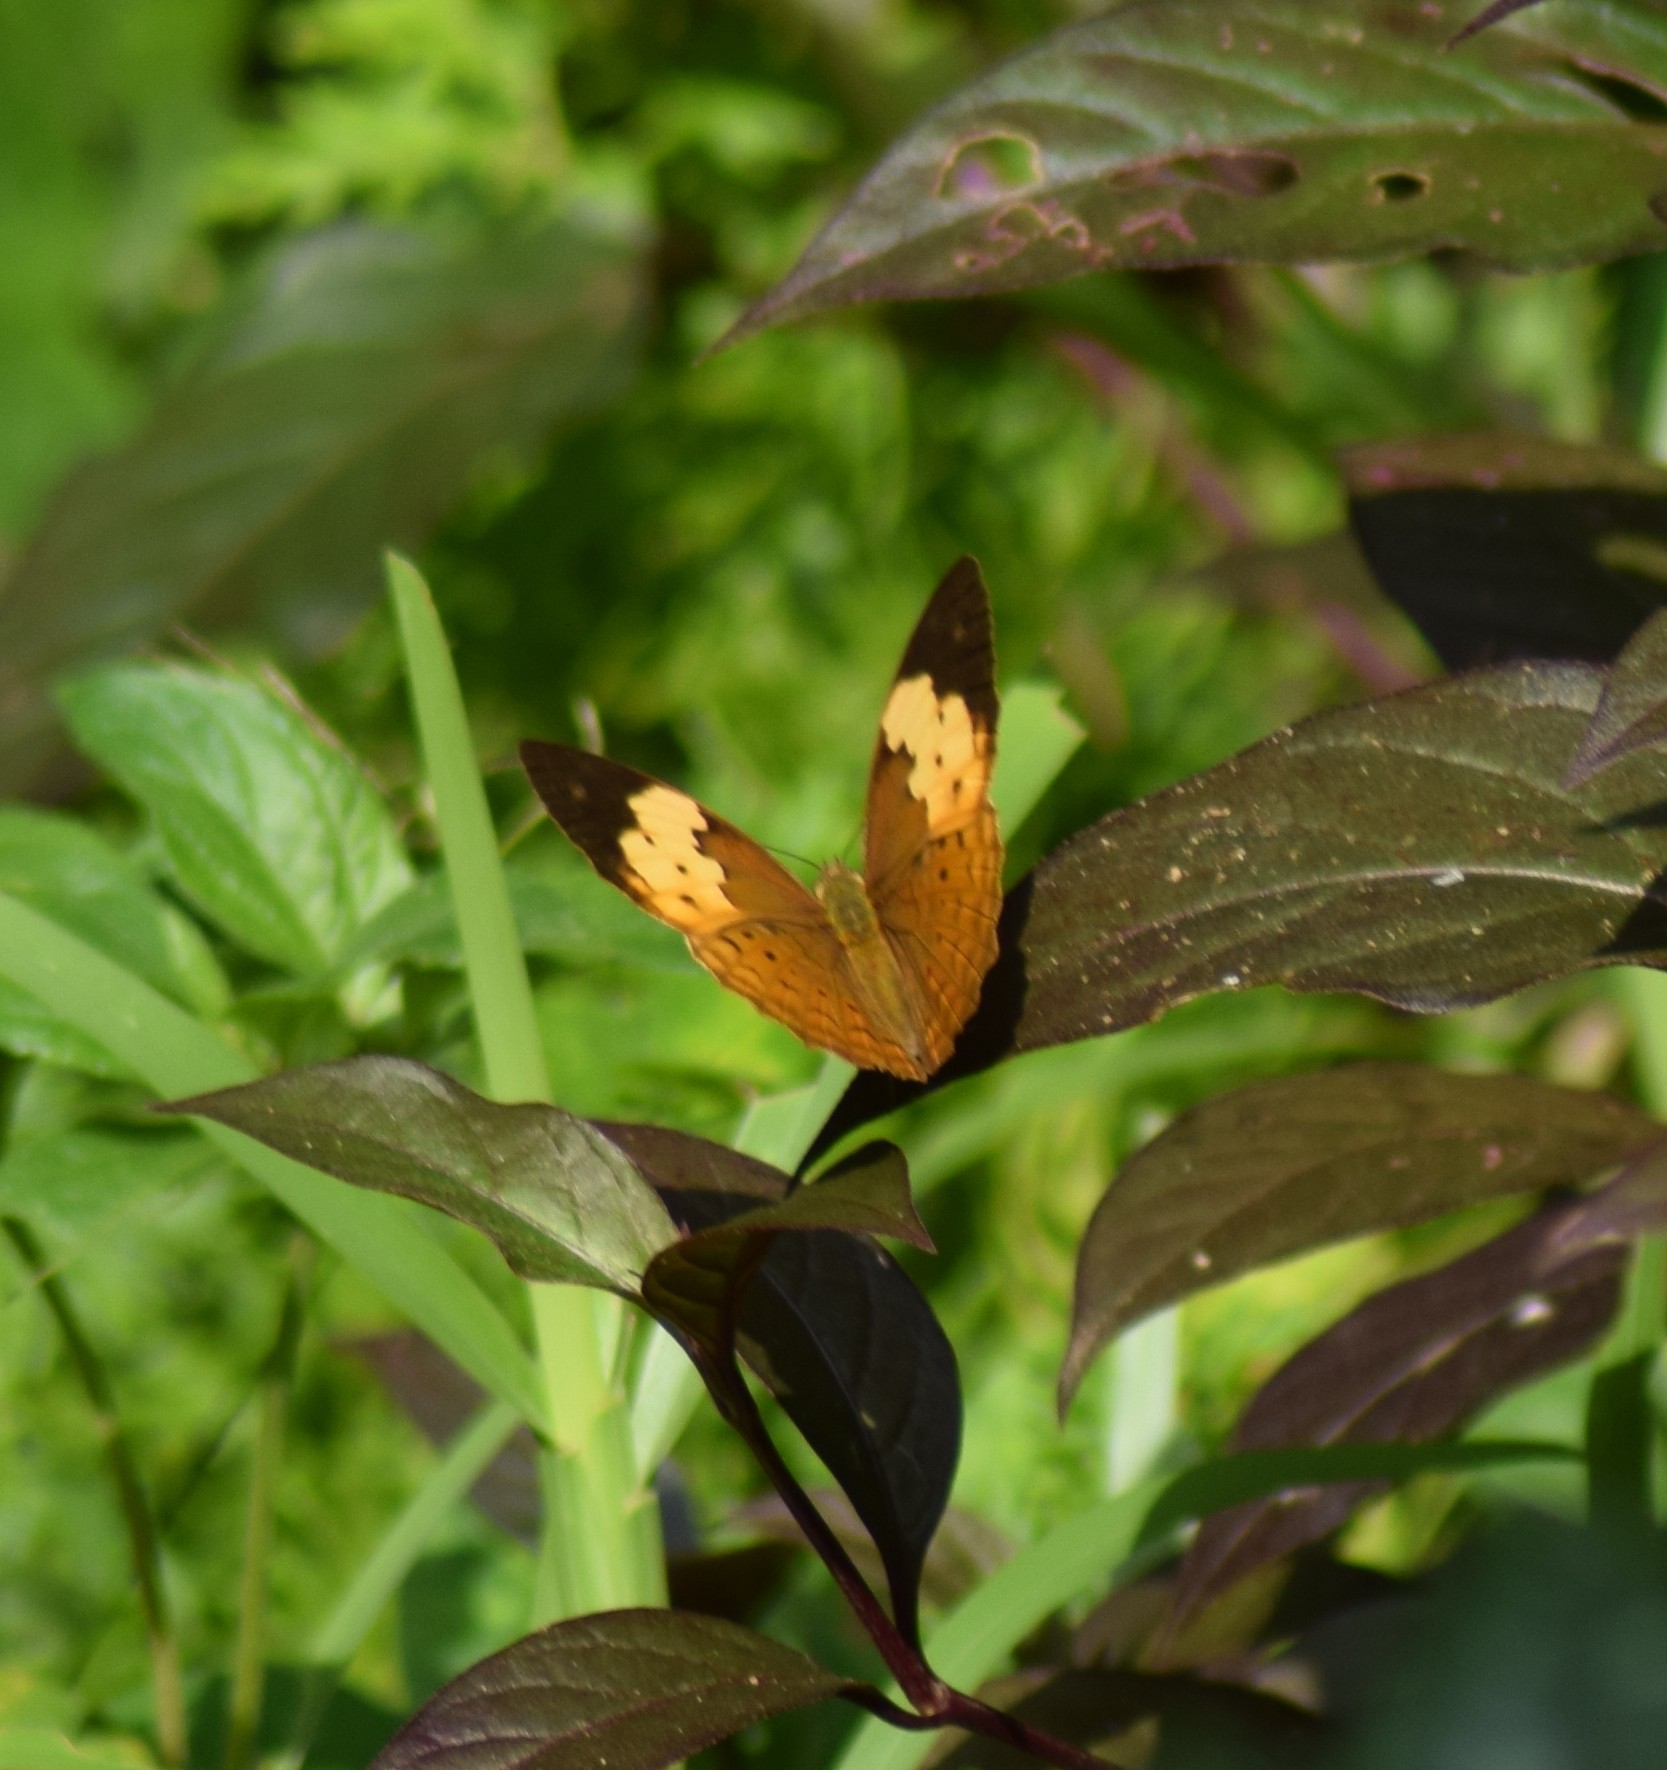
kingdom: Animalia
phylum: Arthropoda
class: Insecta
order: Lepidoptera
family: Nymphalidae
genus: Cupha
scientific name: Cupha erymanthis
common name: Rustic
